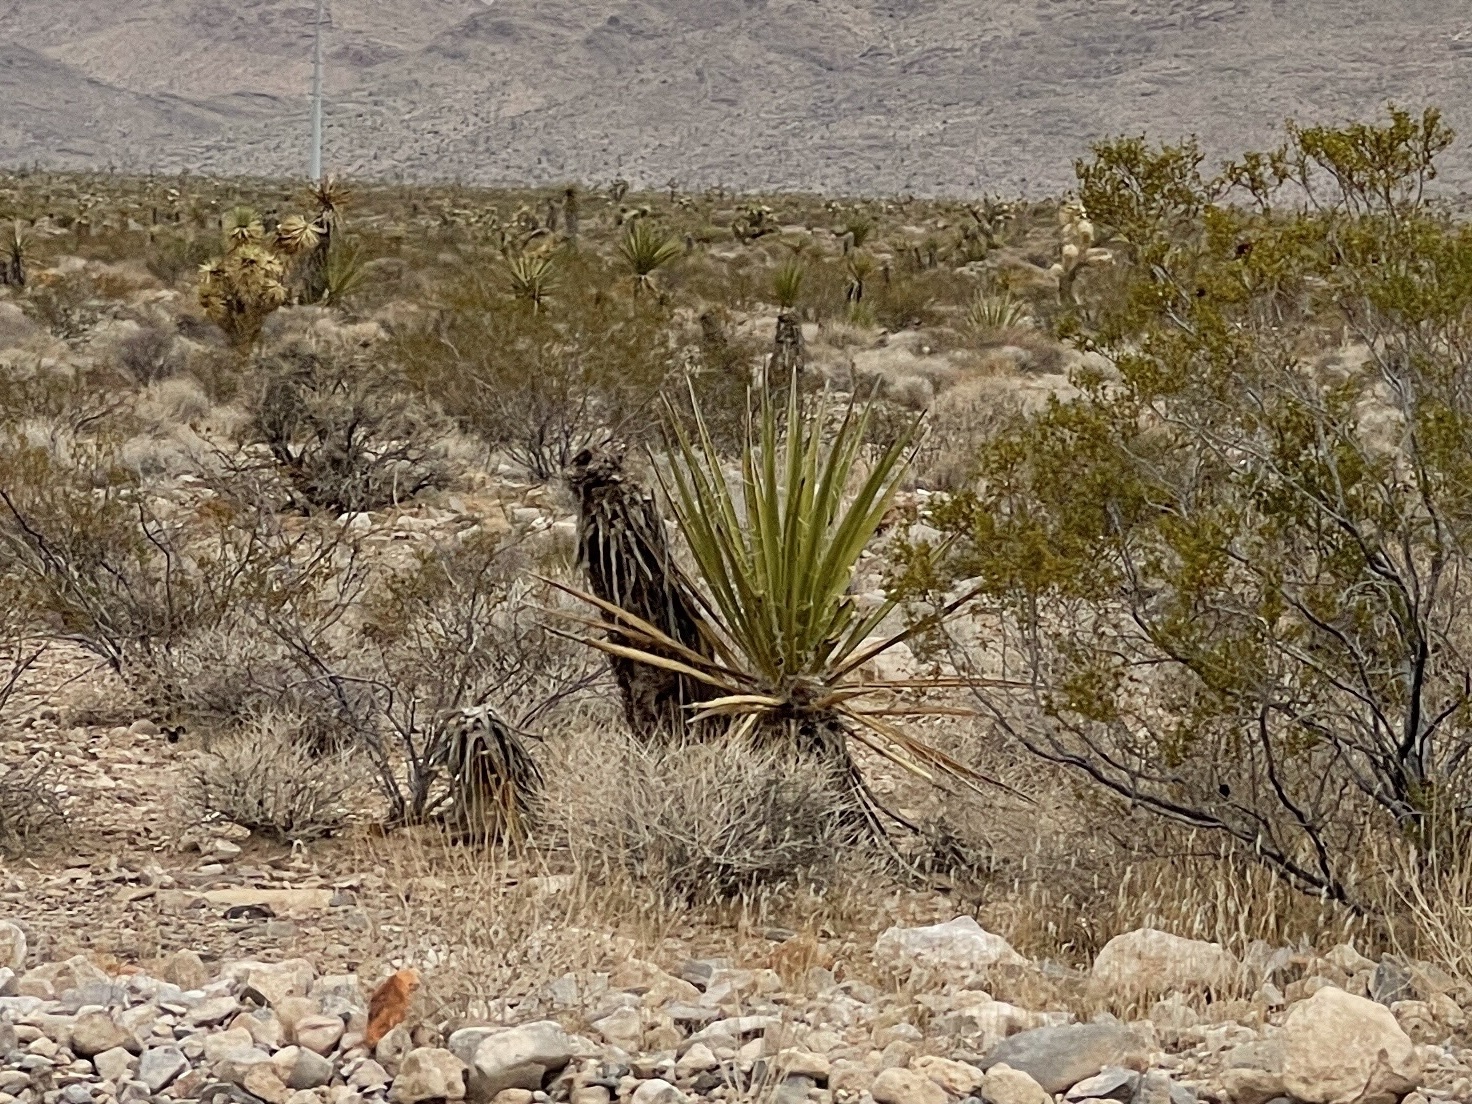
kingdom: Plantae
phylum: Tracheophyta
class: Liliopsida
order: Asparagales
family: Asparagaceae
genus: Yucca
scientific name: Yucca schidigera
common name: Mojave yucca
